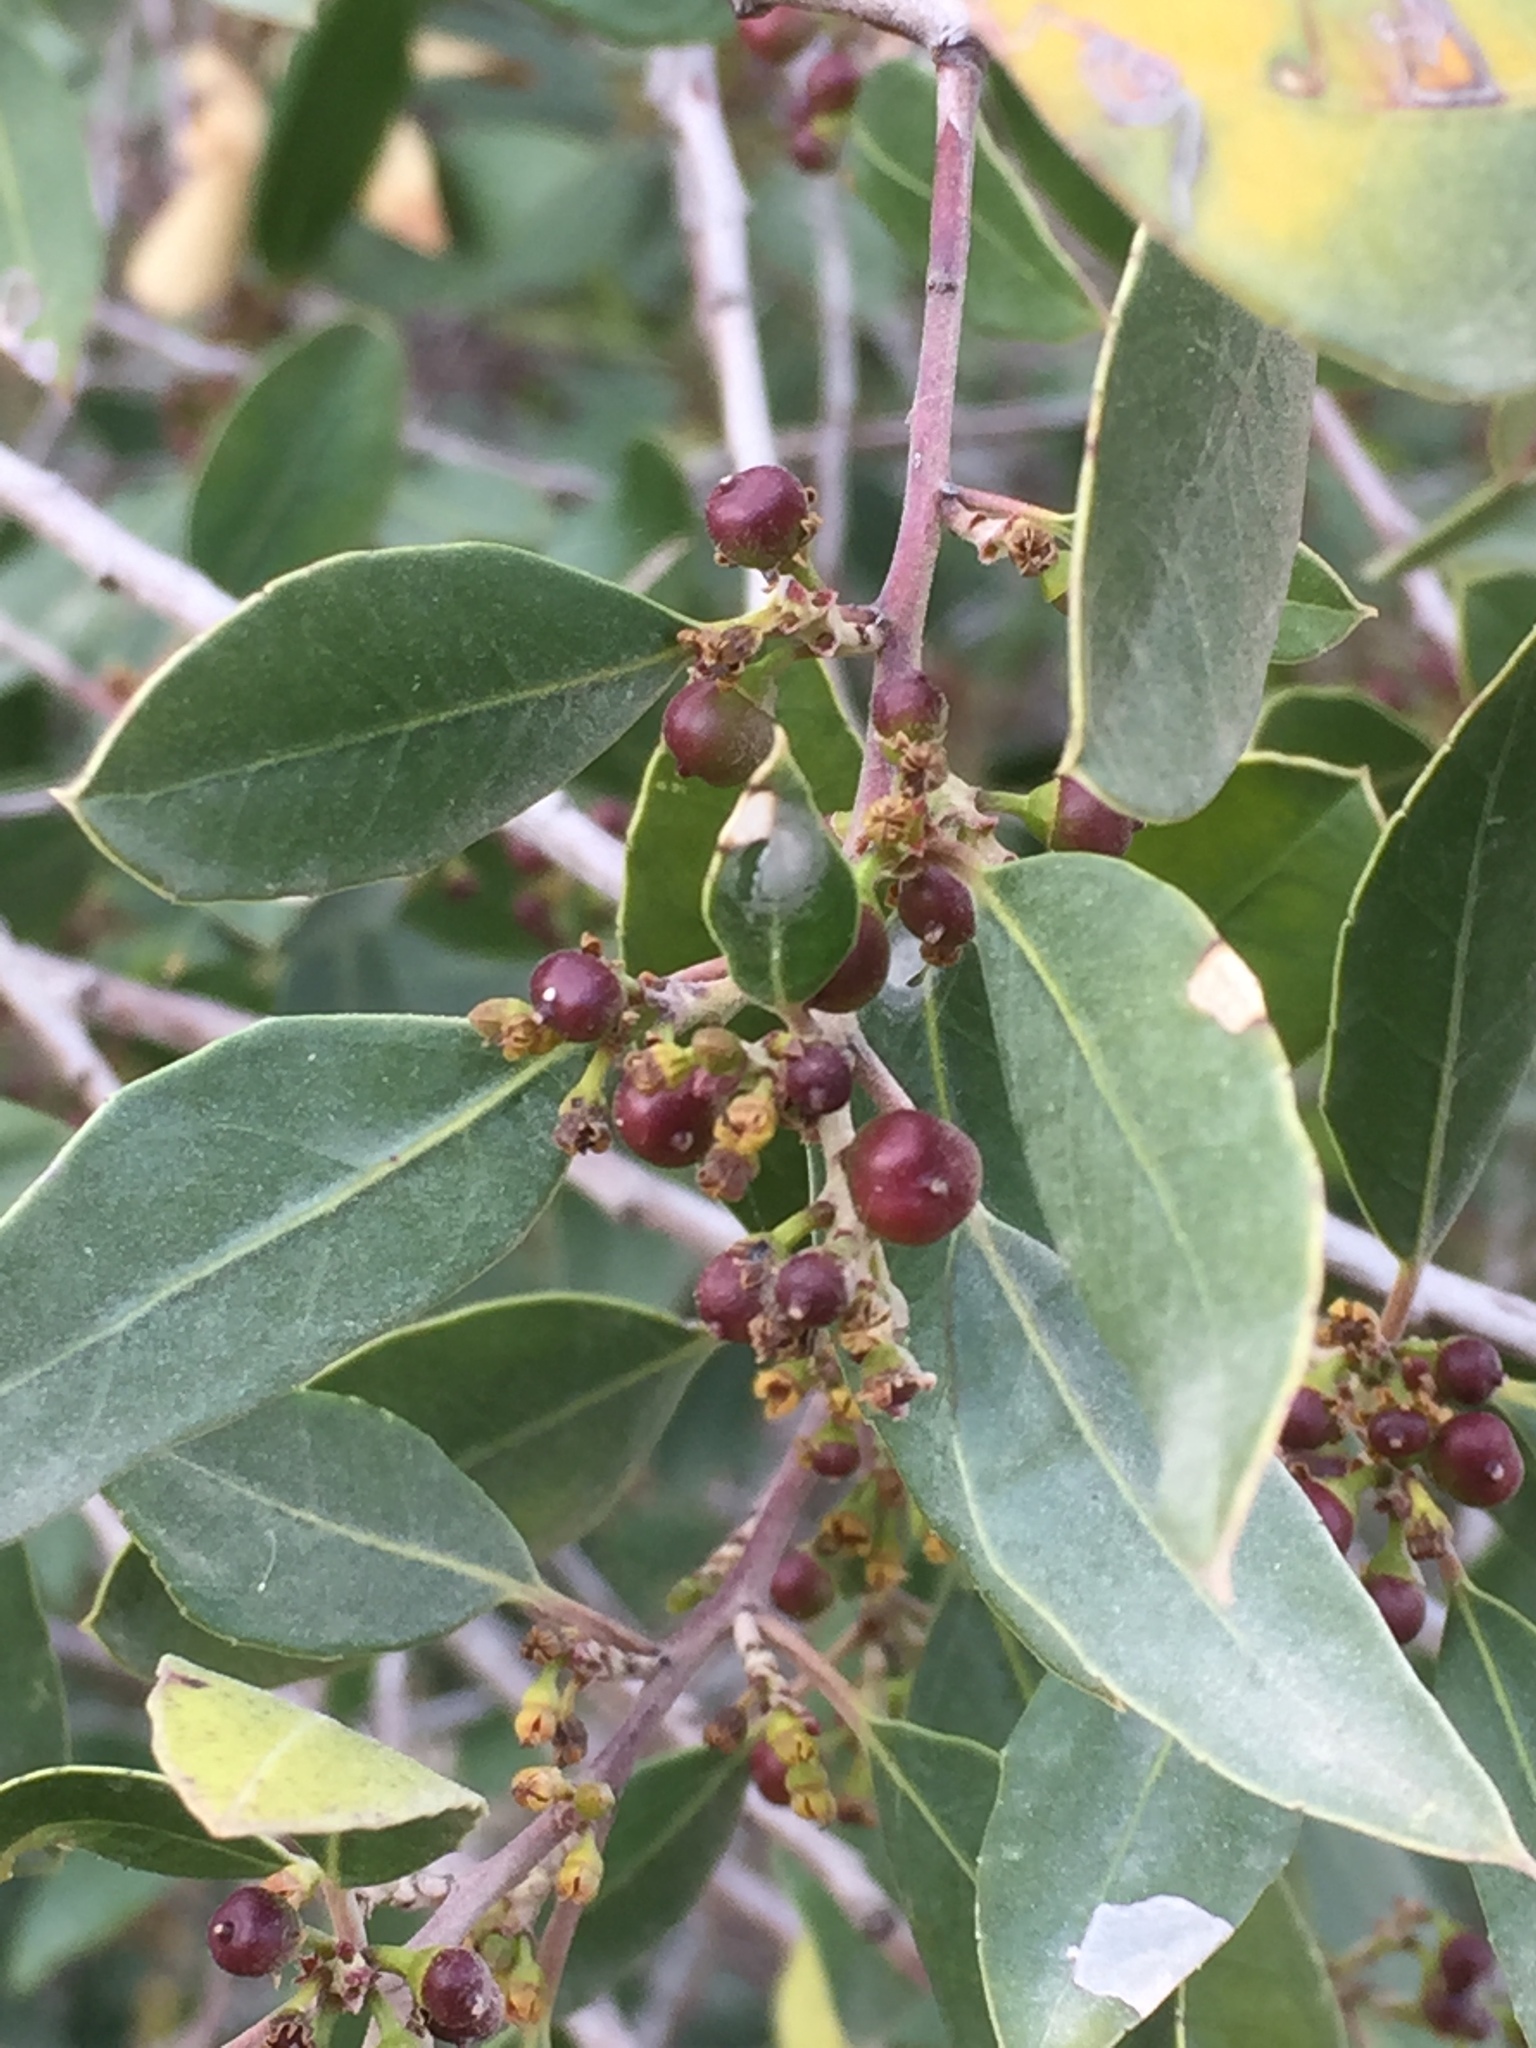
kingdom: Plantae
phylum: Tracheophyta
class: Magnoliopsida
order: Rosales
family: Rhamnaceae
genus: Rhamnus
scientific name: Rhamnus alaternus
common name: Mediterranean buckthorn
